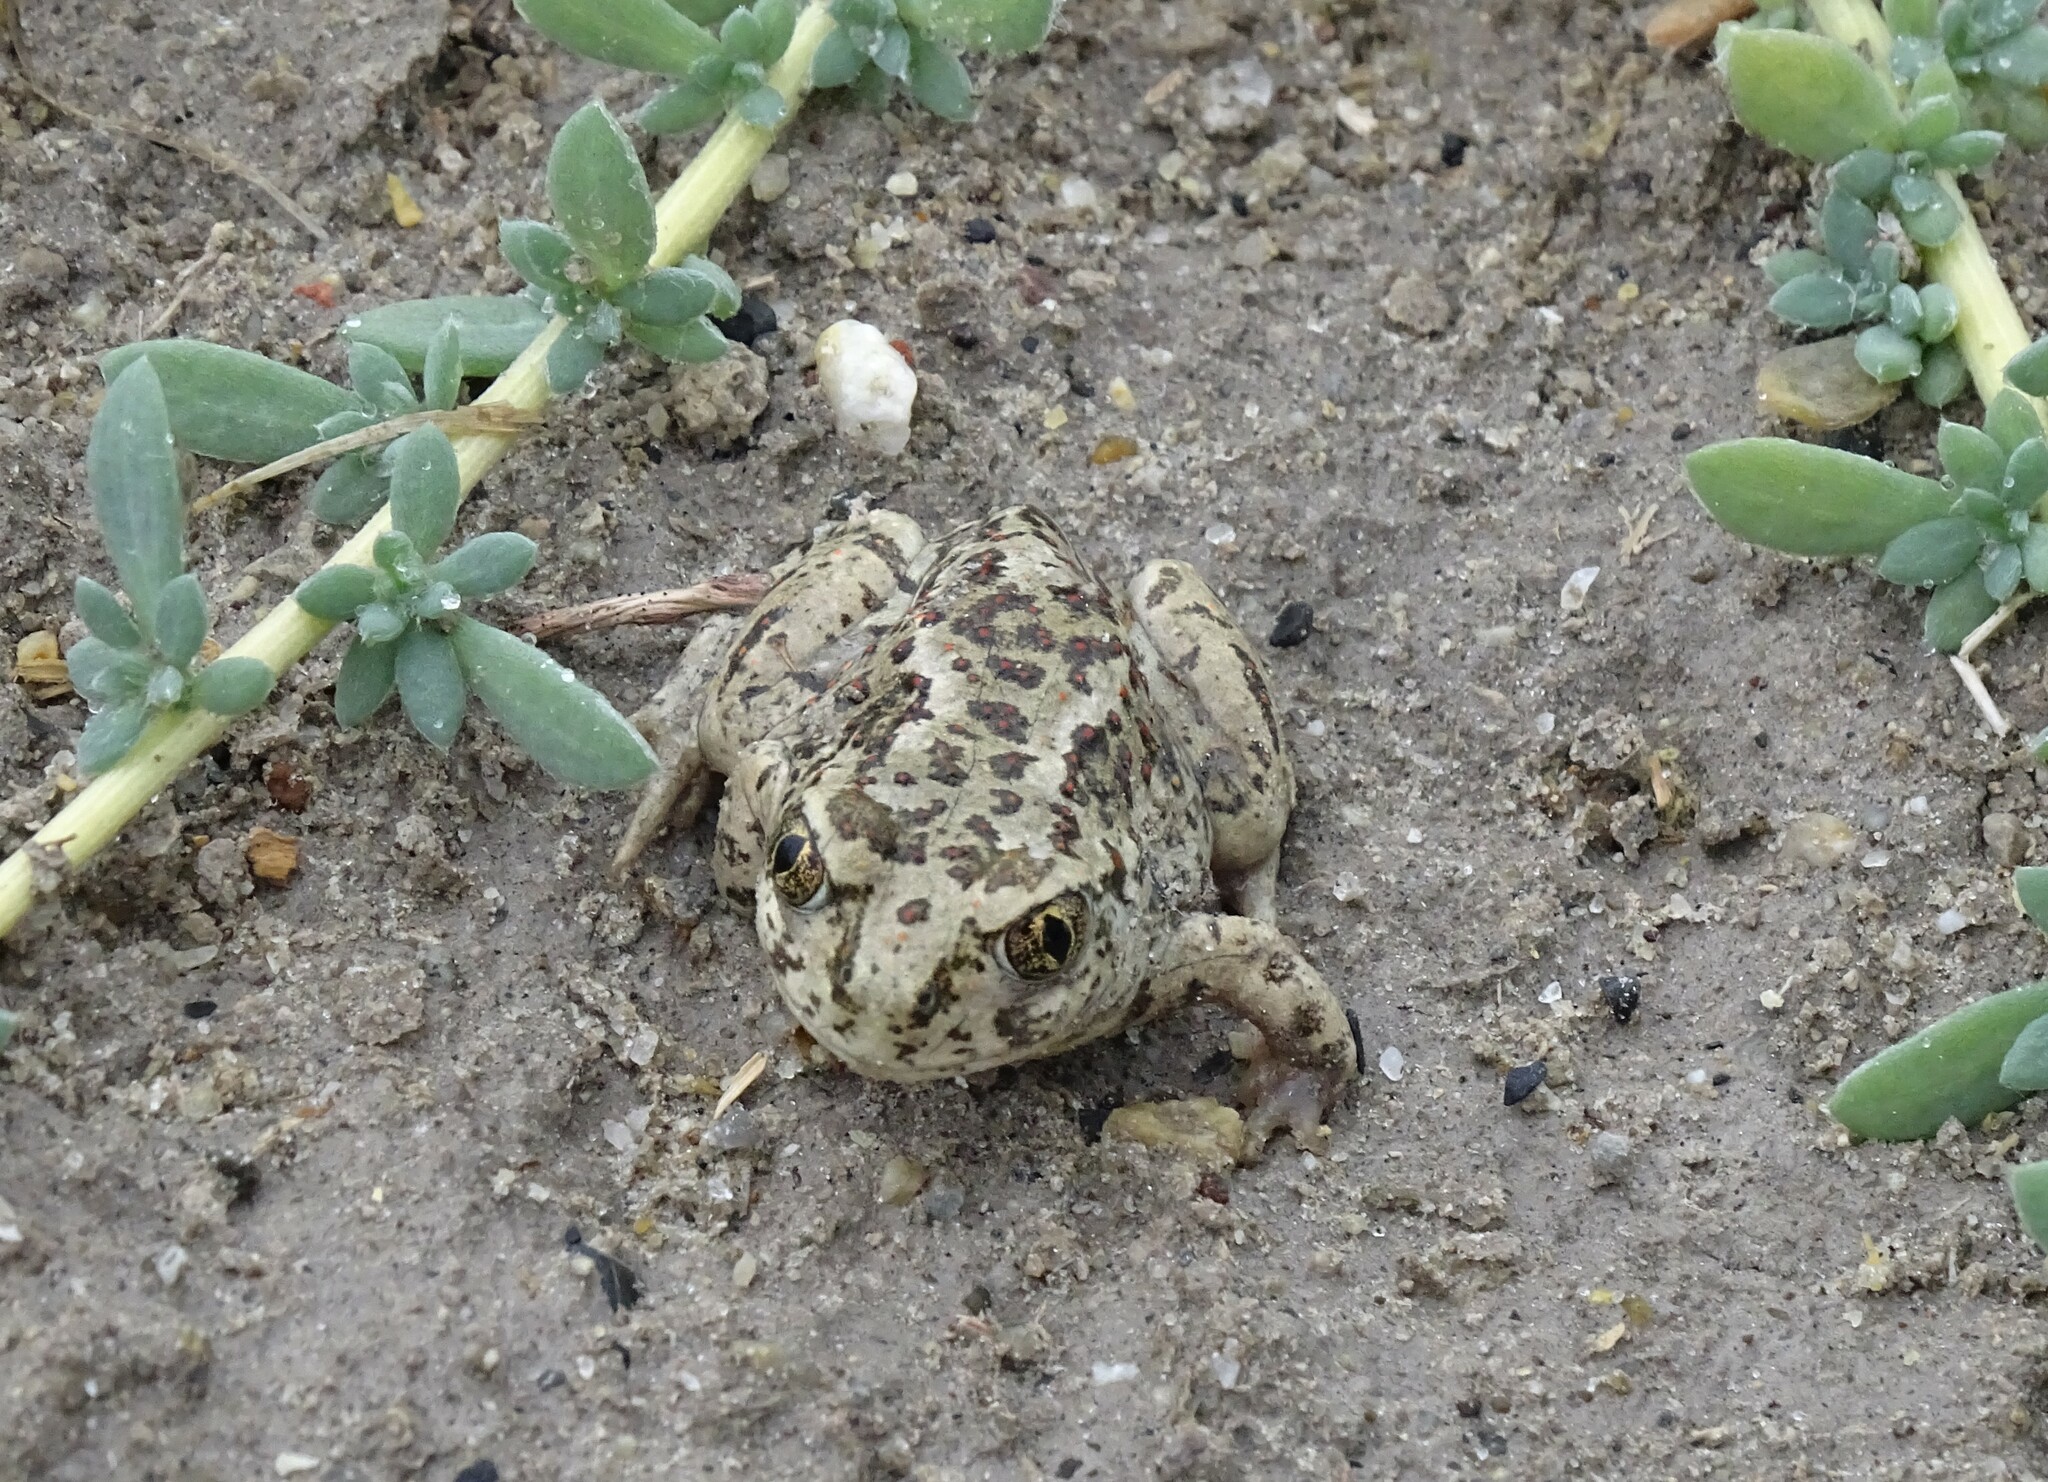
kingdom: Animalia
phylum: Chordata
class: Amphibia
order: Anura
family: Scaphiopodidae
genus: Spea
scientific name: Spea intermontana
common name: Great basin spadefoot
